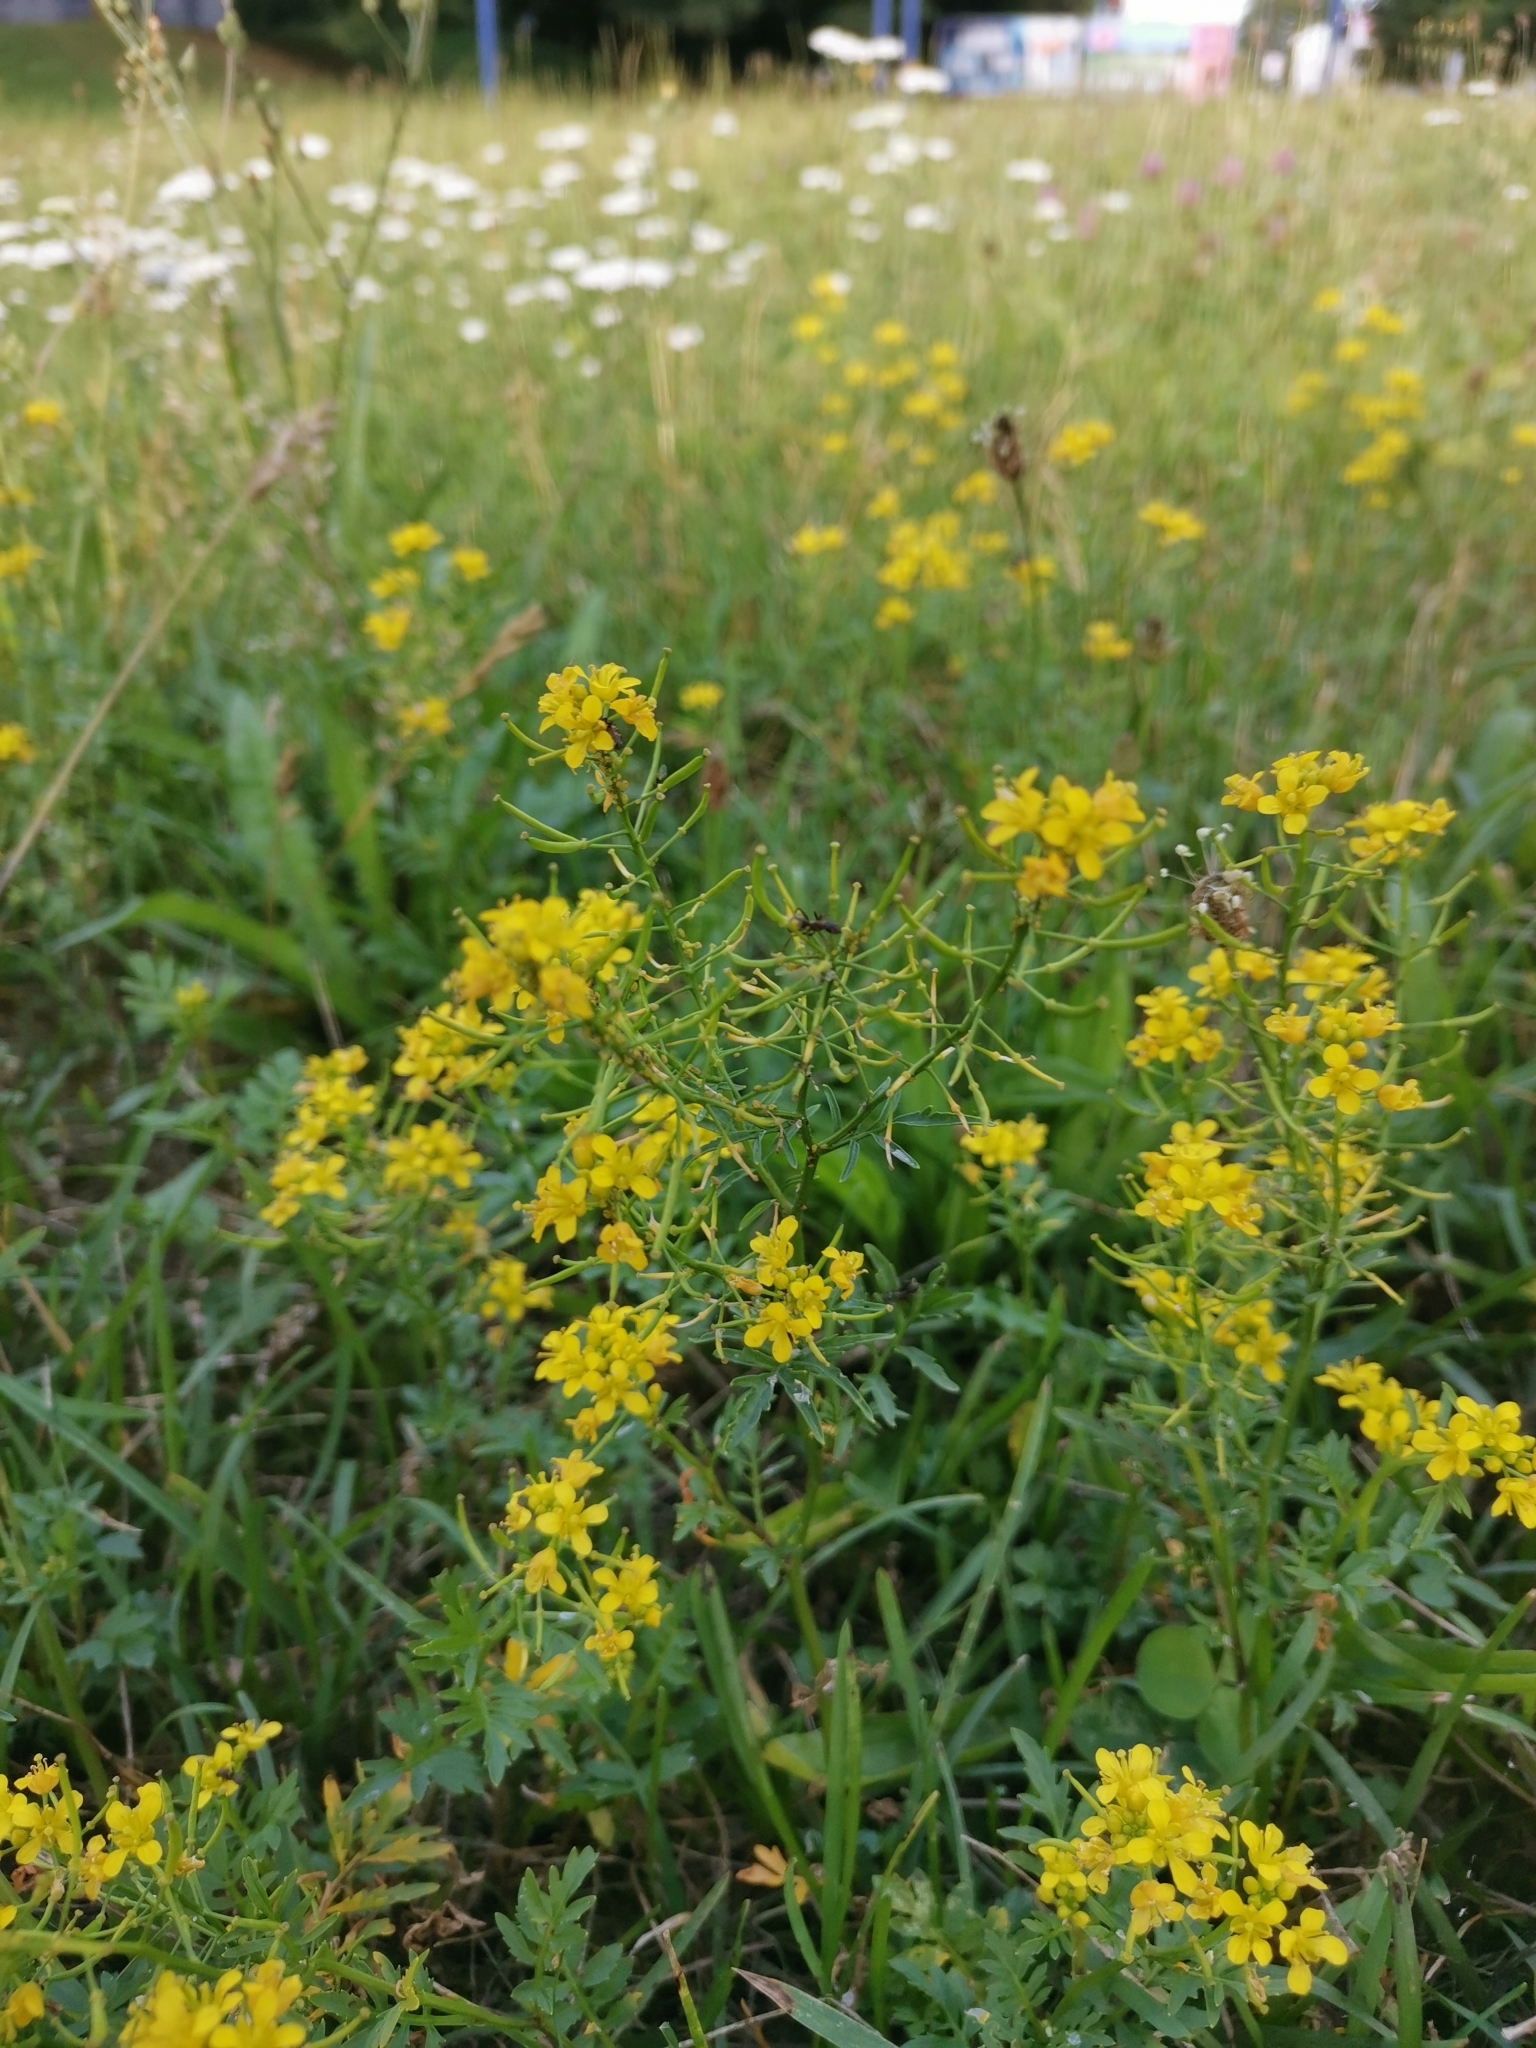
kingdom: Plantae
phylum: Tracheophyta
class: Magnoliopsida
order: Brassicales
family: Brassicaceae
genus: Rorippa
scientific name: Rorippa sylvestris
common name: Creeping yellowcress
